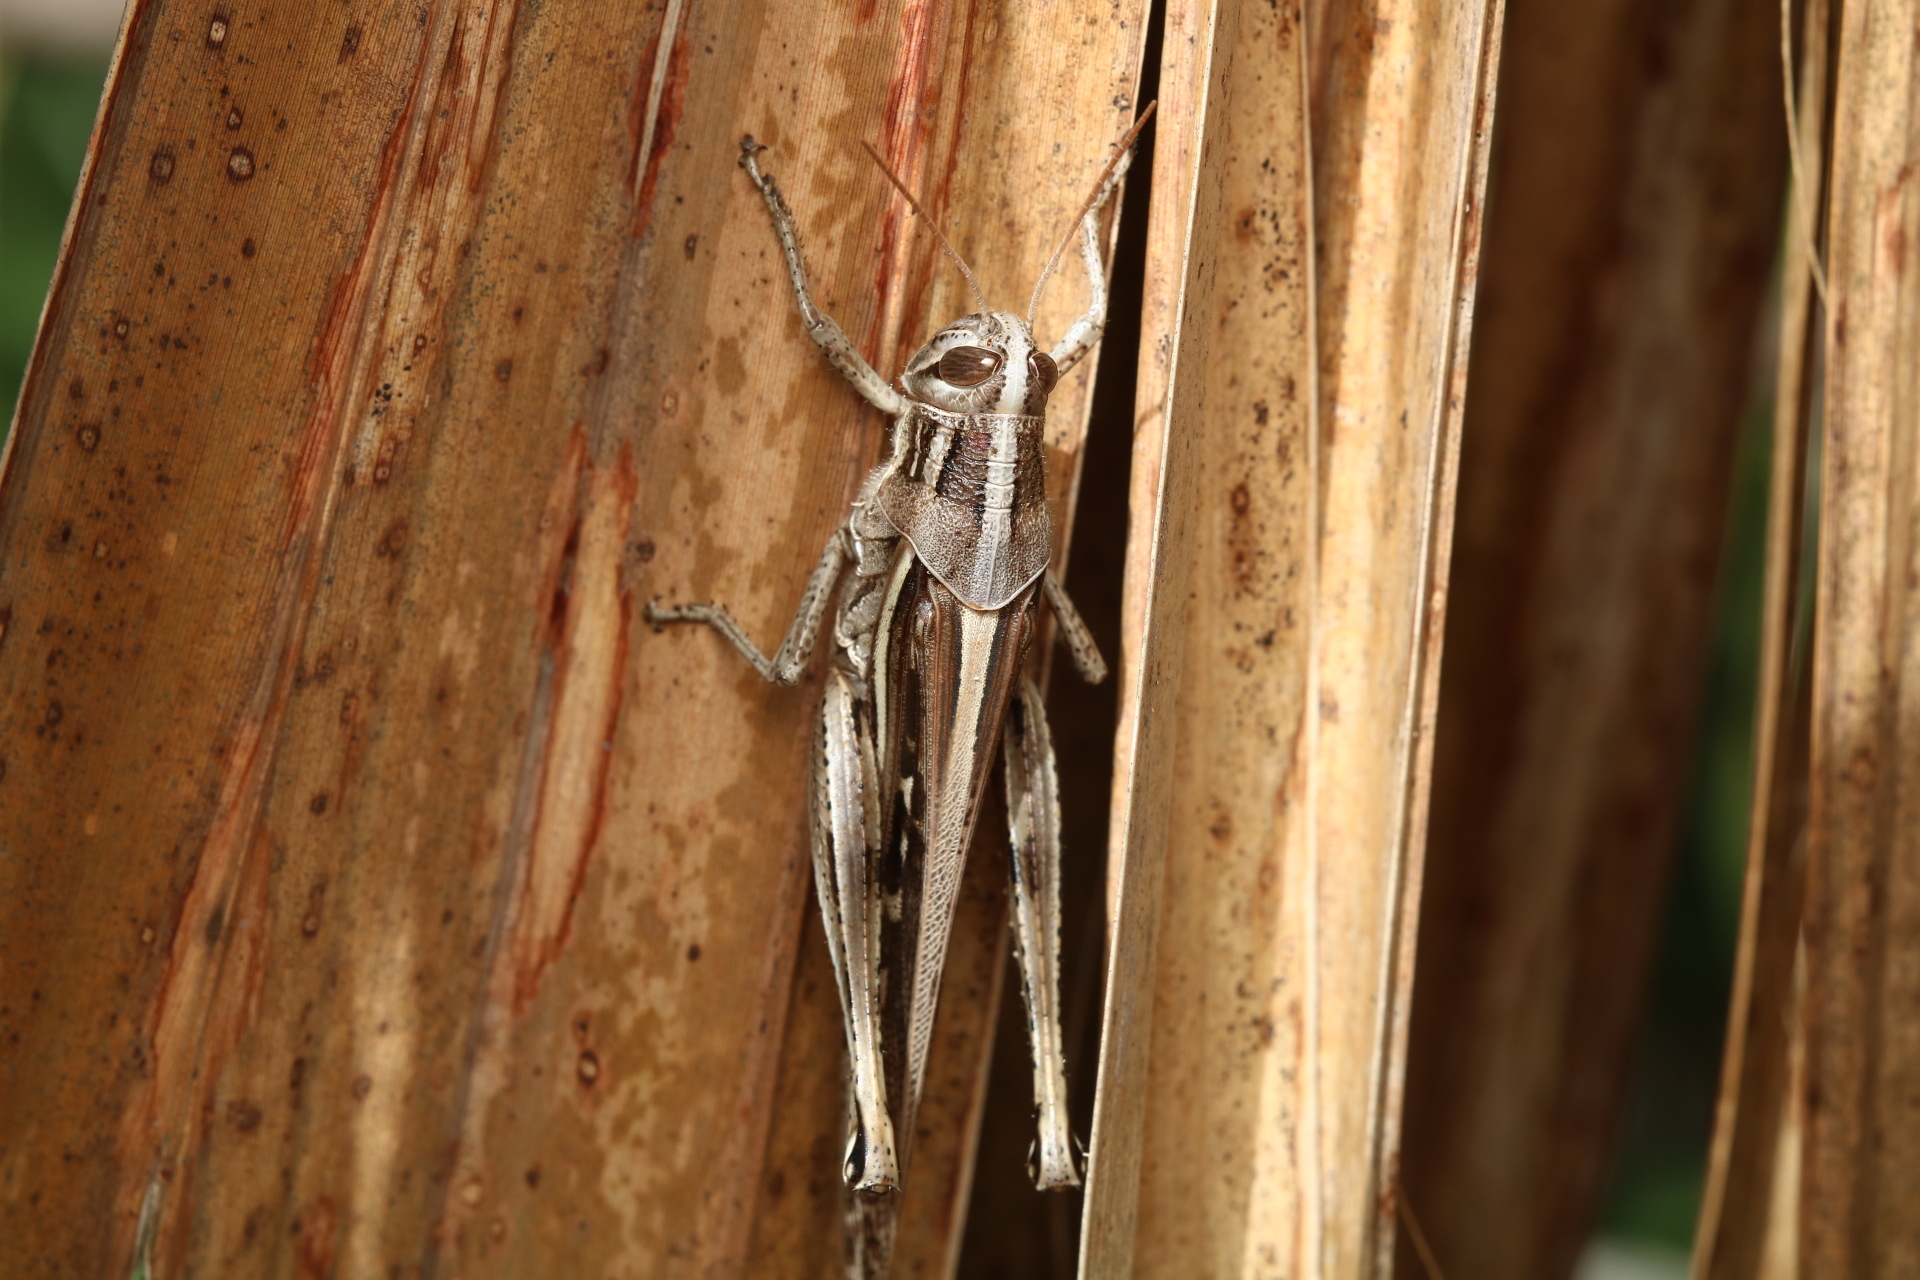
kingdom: Animalia
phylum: Arthropoda
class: Insecta
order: Orthoptera
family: Acrididae
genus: Schistocerca
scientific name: Schistocerca serialis
